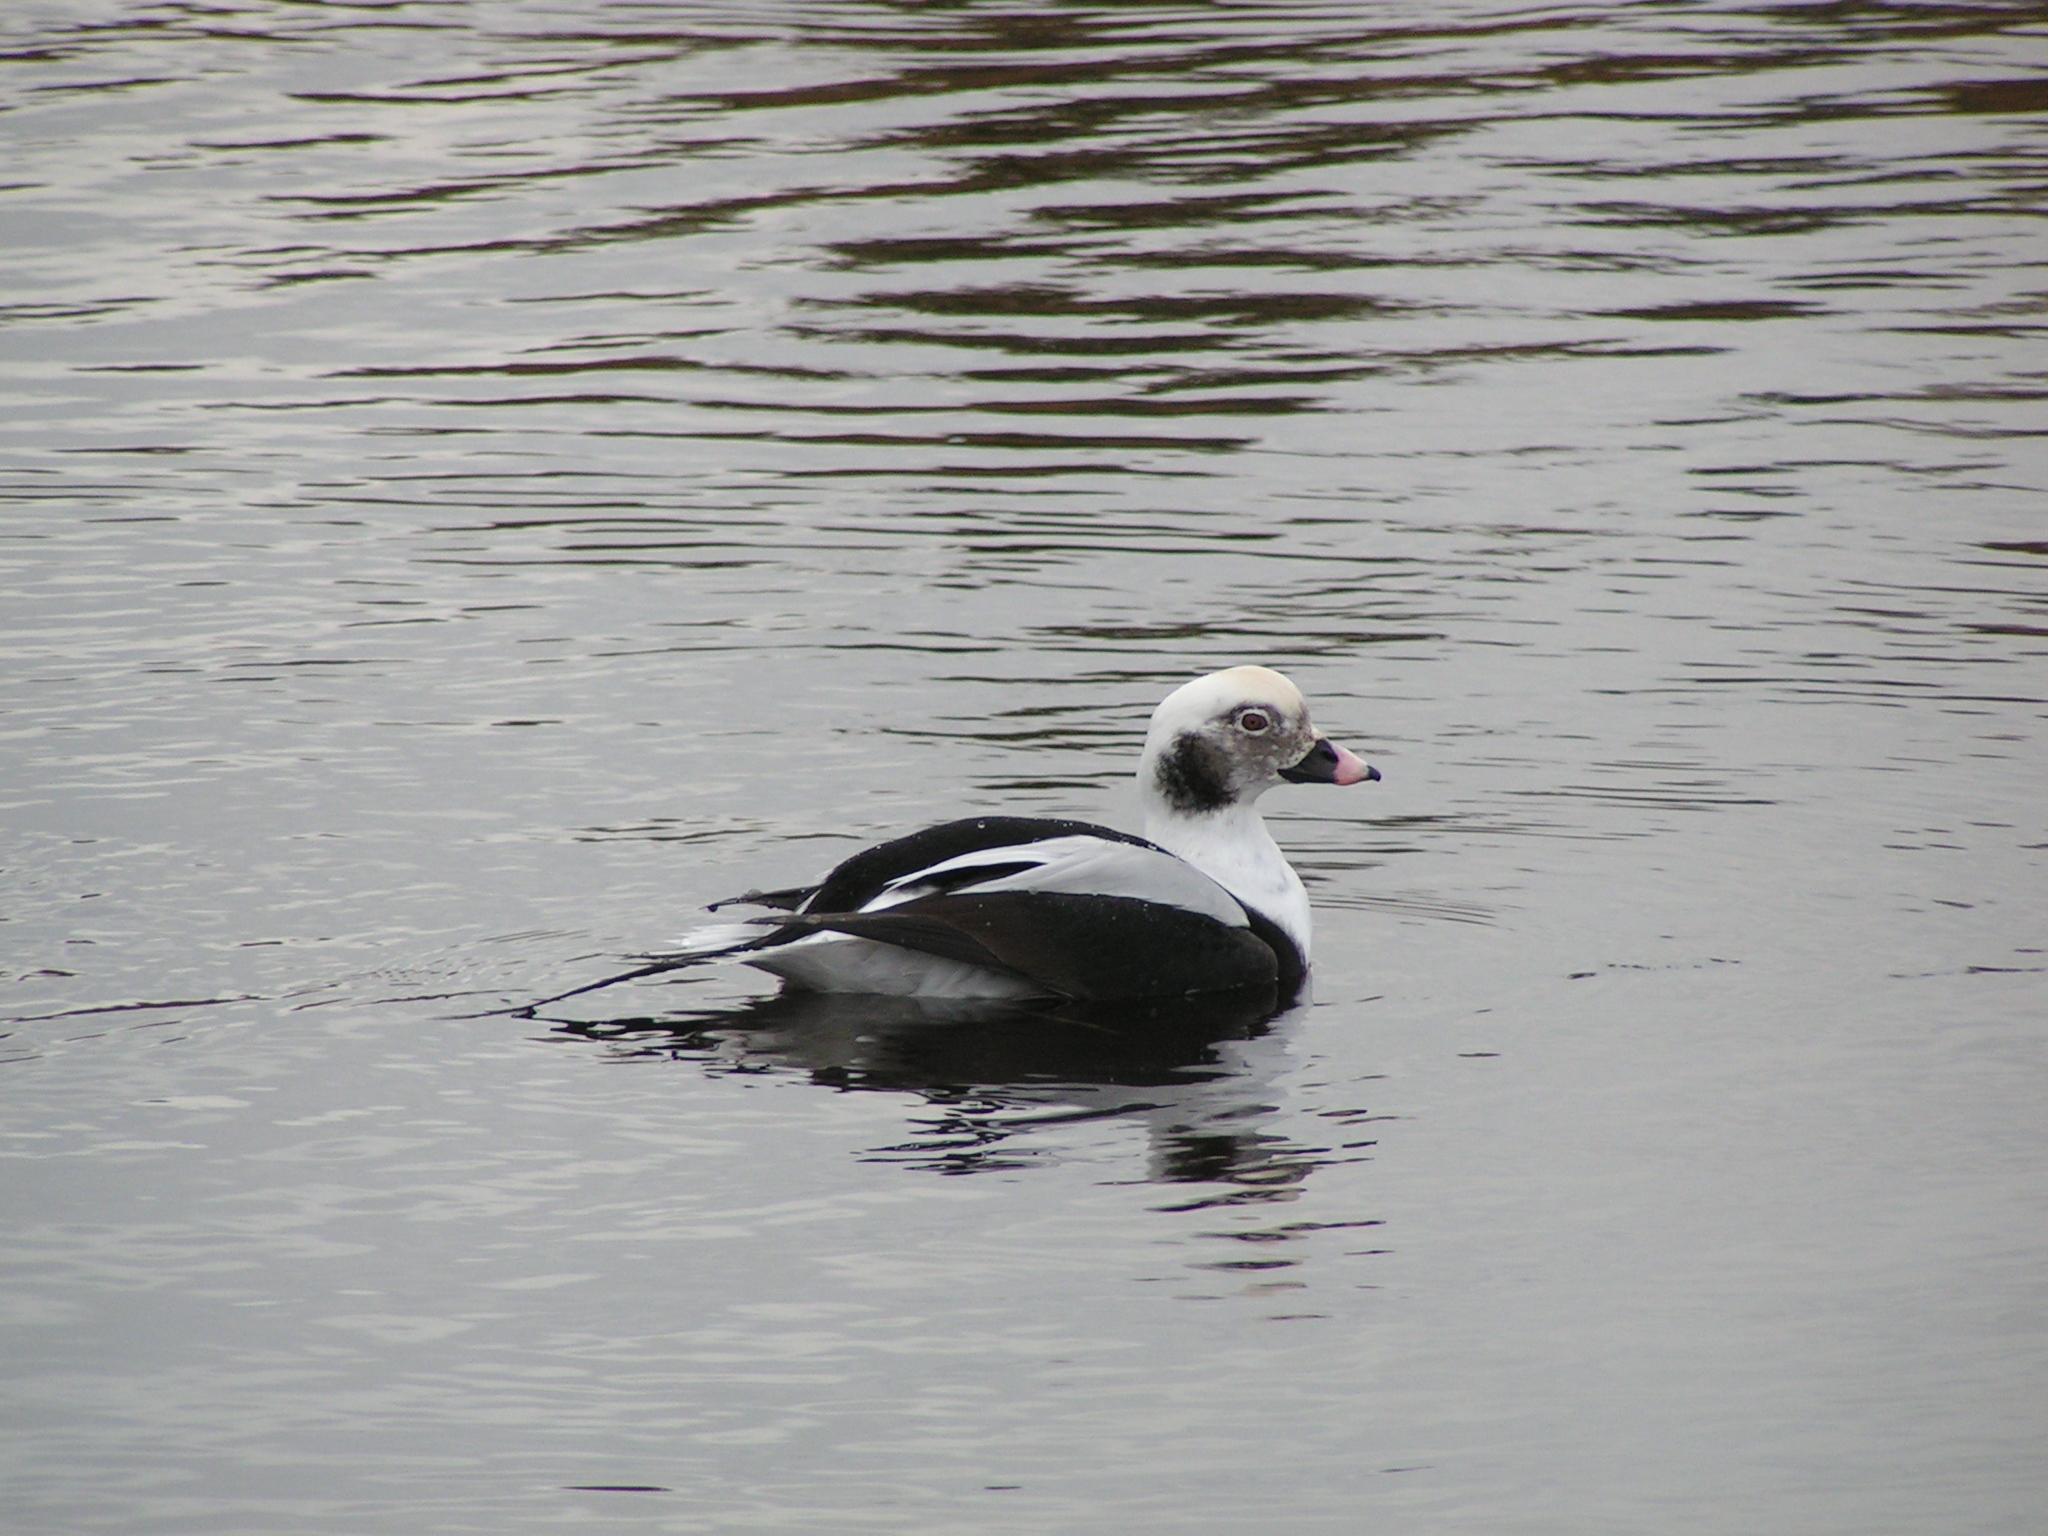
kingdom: Animalia
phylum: Chordata
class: Aves
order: Anseriformes
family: Anatidae
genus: Clangula
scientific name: Clangula hyemalis
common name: Long-tailed duck
